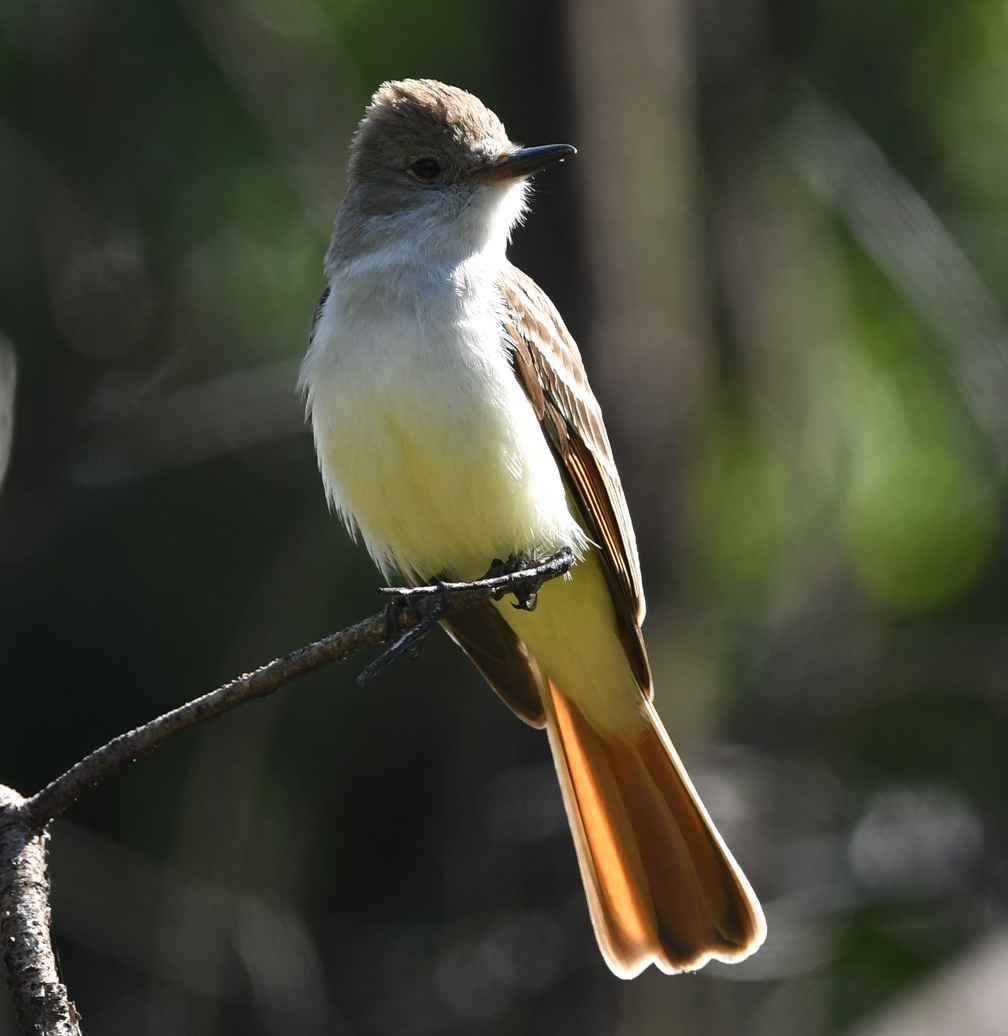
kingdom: Animalia
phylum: Chordata
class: Aves
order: Passeriformes
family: Tyrannidae
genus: Myiarchus
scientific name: Myiarchus cinerascens
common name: Ash-throated flycatcher
